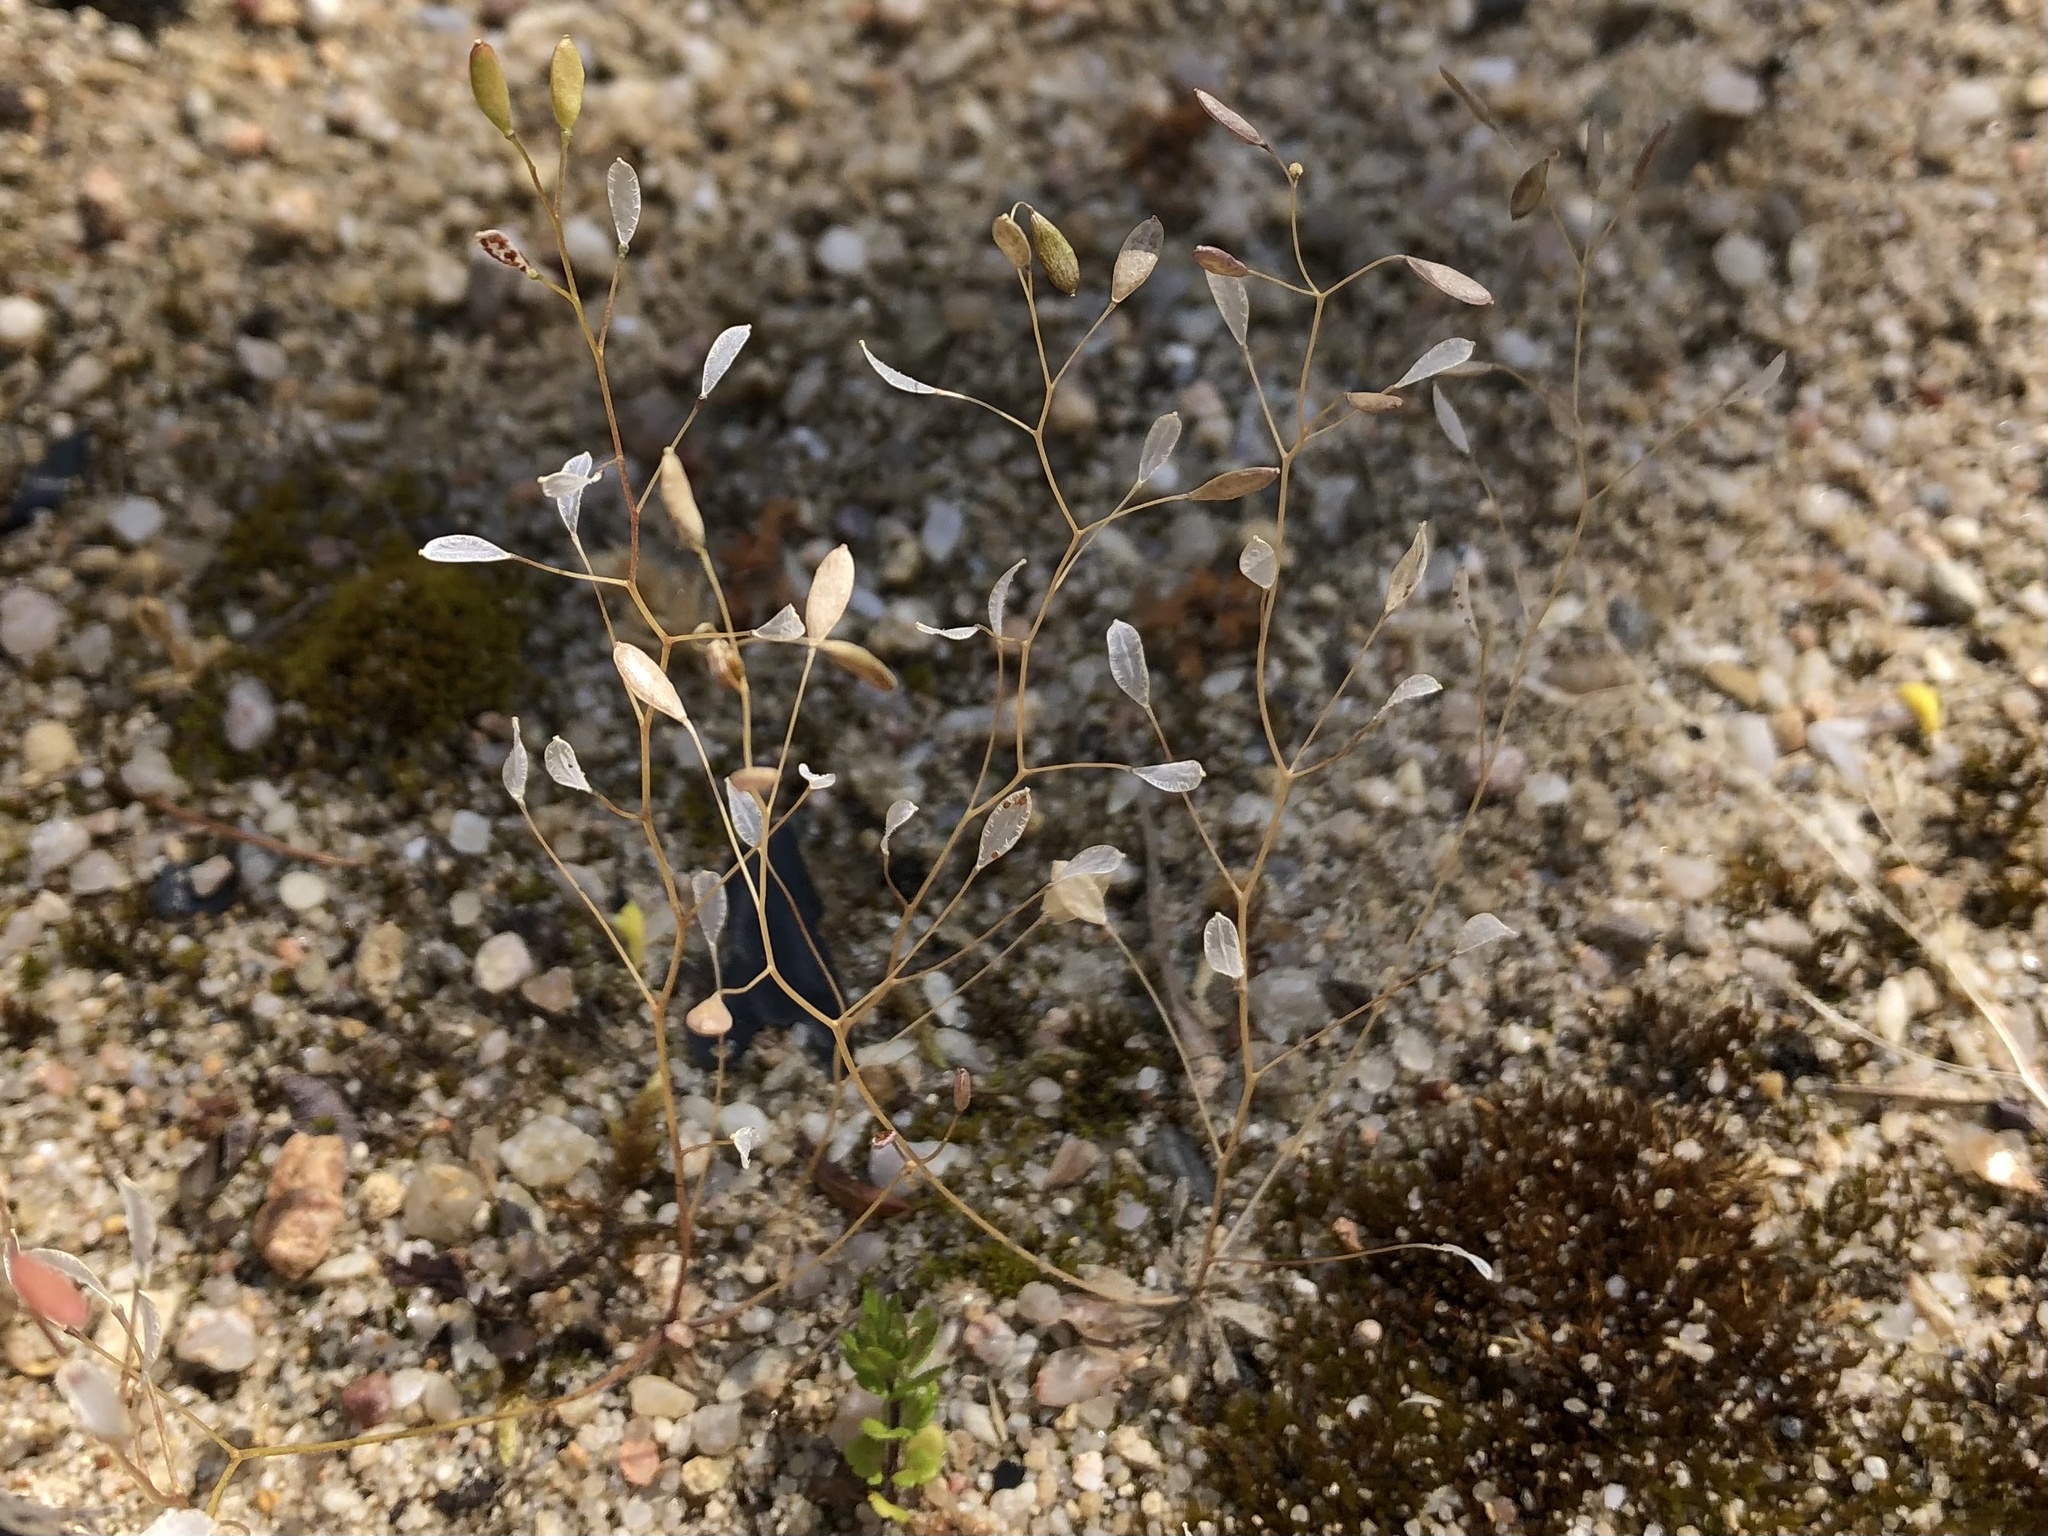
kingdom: Plantae
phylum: Tracheophyta
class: Magnoliopsida
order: Brassicales
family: Brassicaceae
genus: Draba
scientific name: Draba verna
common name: Spring draba
